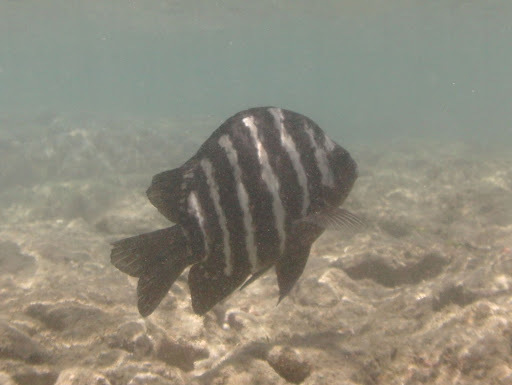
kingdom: Animalia
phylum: Chordata
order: Perciformes
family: Pomacentridae
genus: Abudefduf
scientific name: Abudefduf sordidus
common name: Blackspot sergeant
